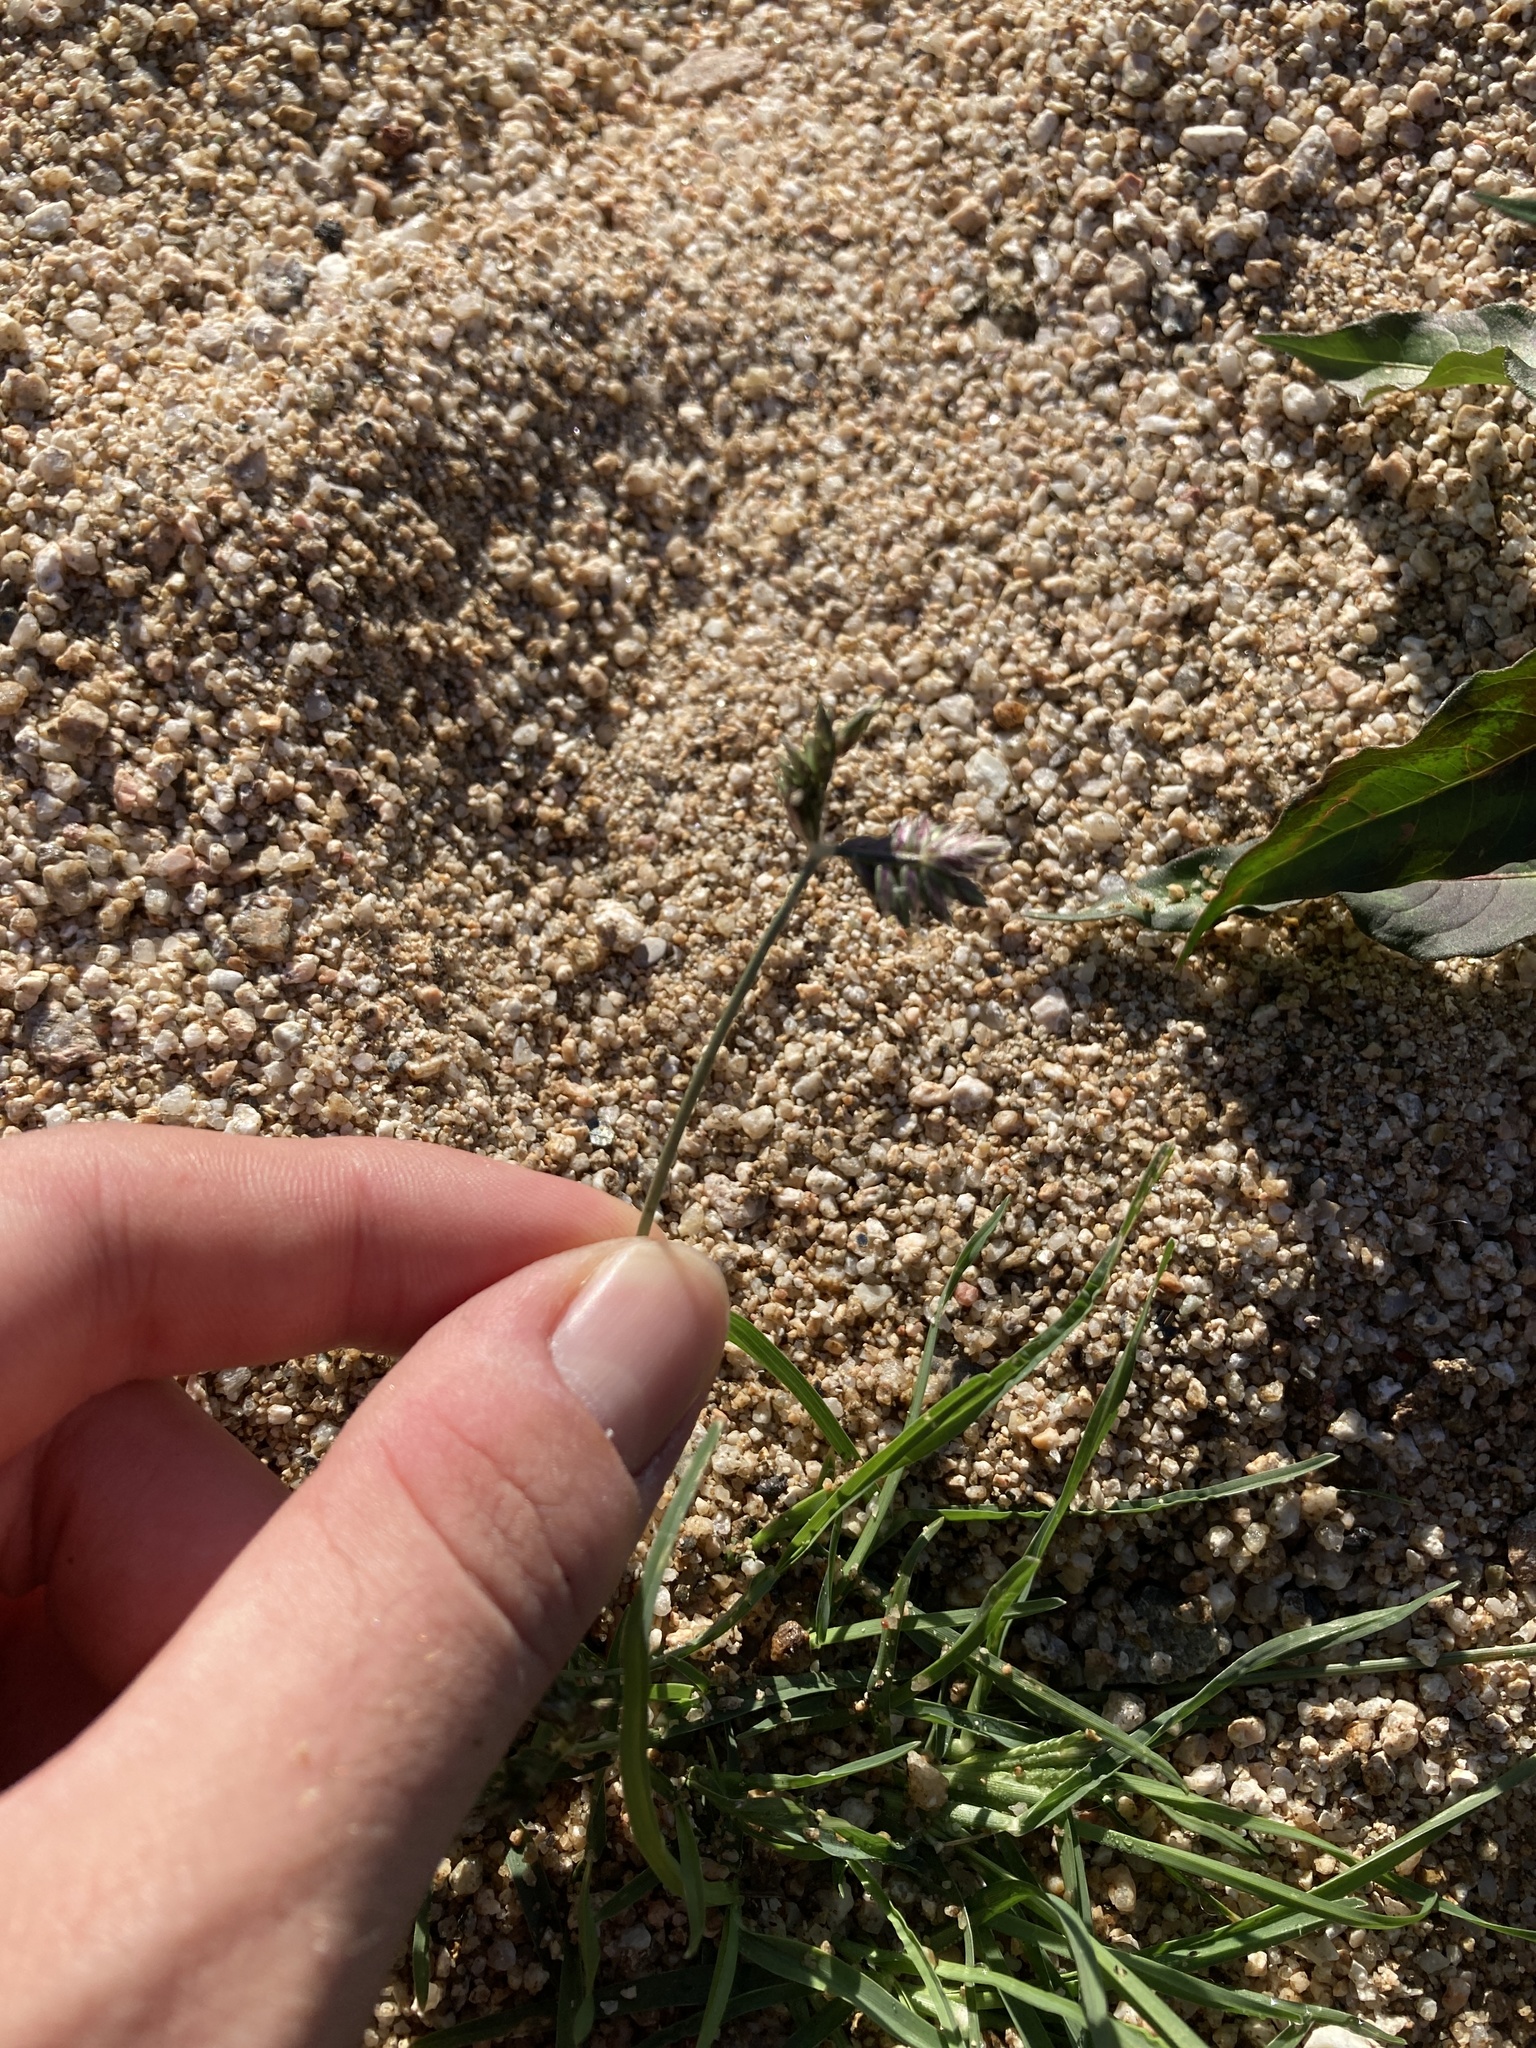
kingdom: Plantae
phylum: Tracheophyta
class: Liliopsida
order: Poales
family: Poaceae
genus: Eleusine
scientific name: Eleusine tristachya
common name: American yard-grass
